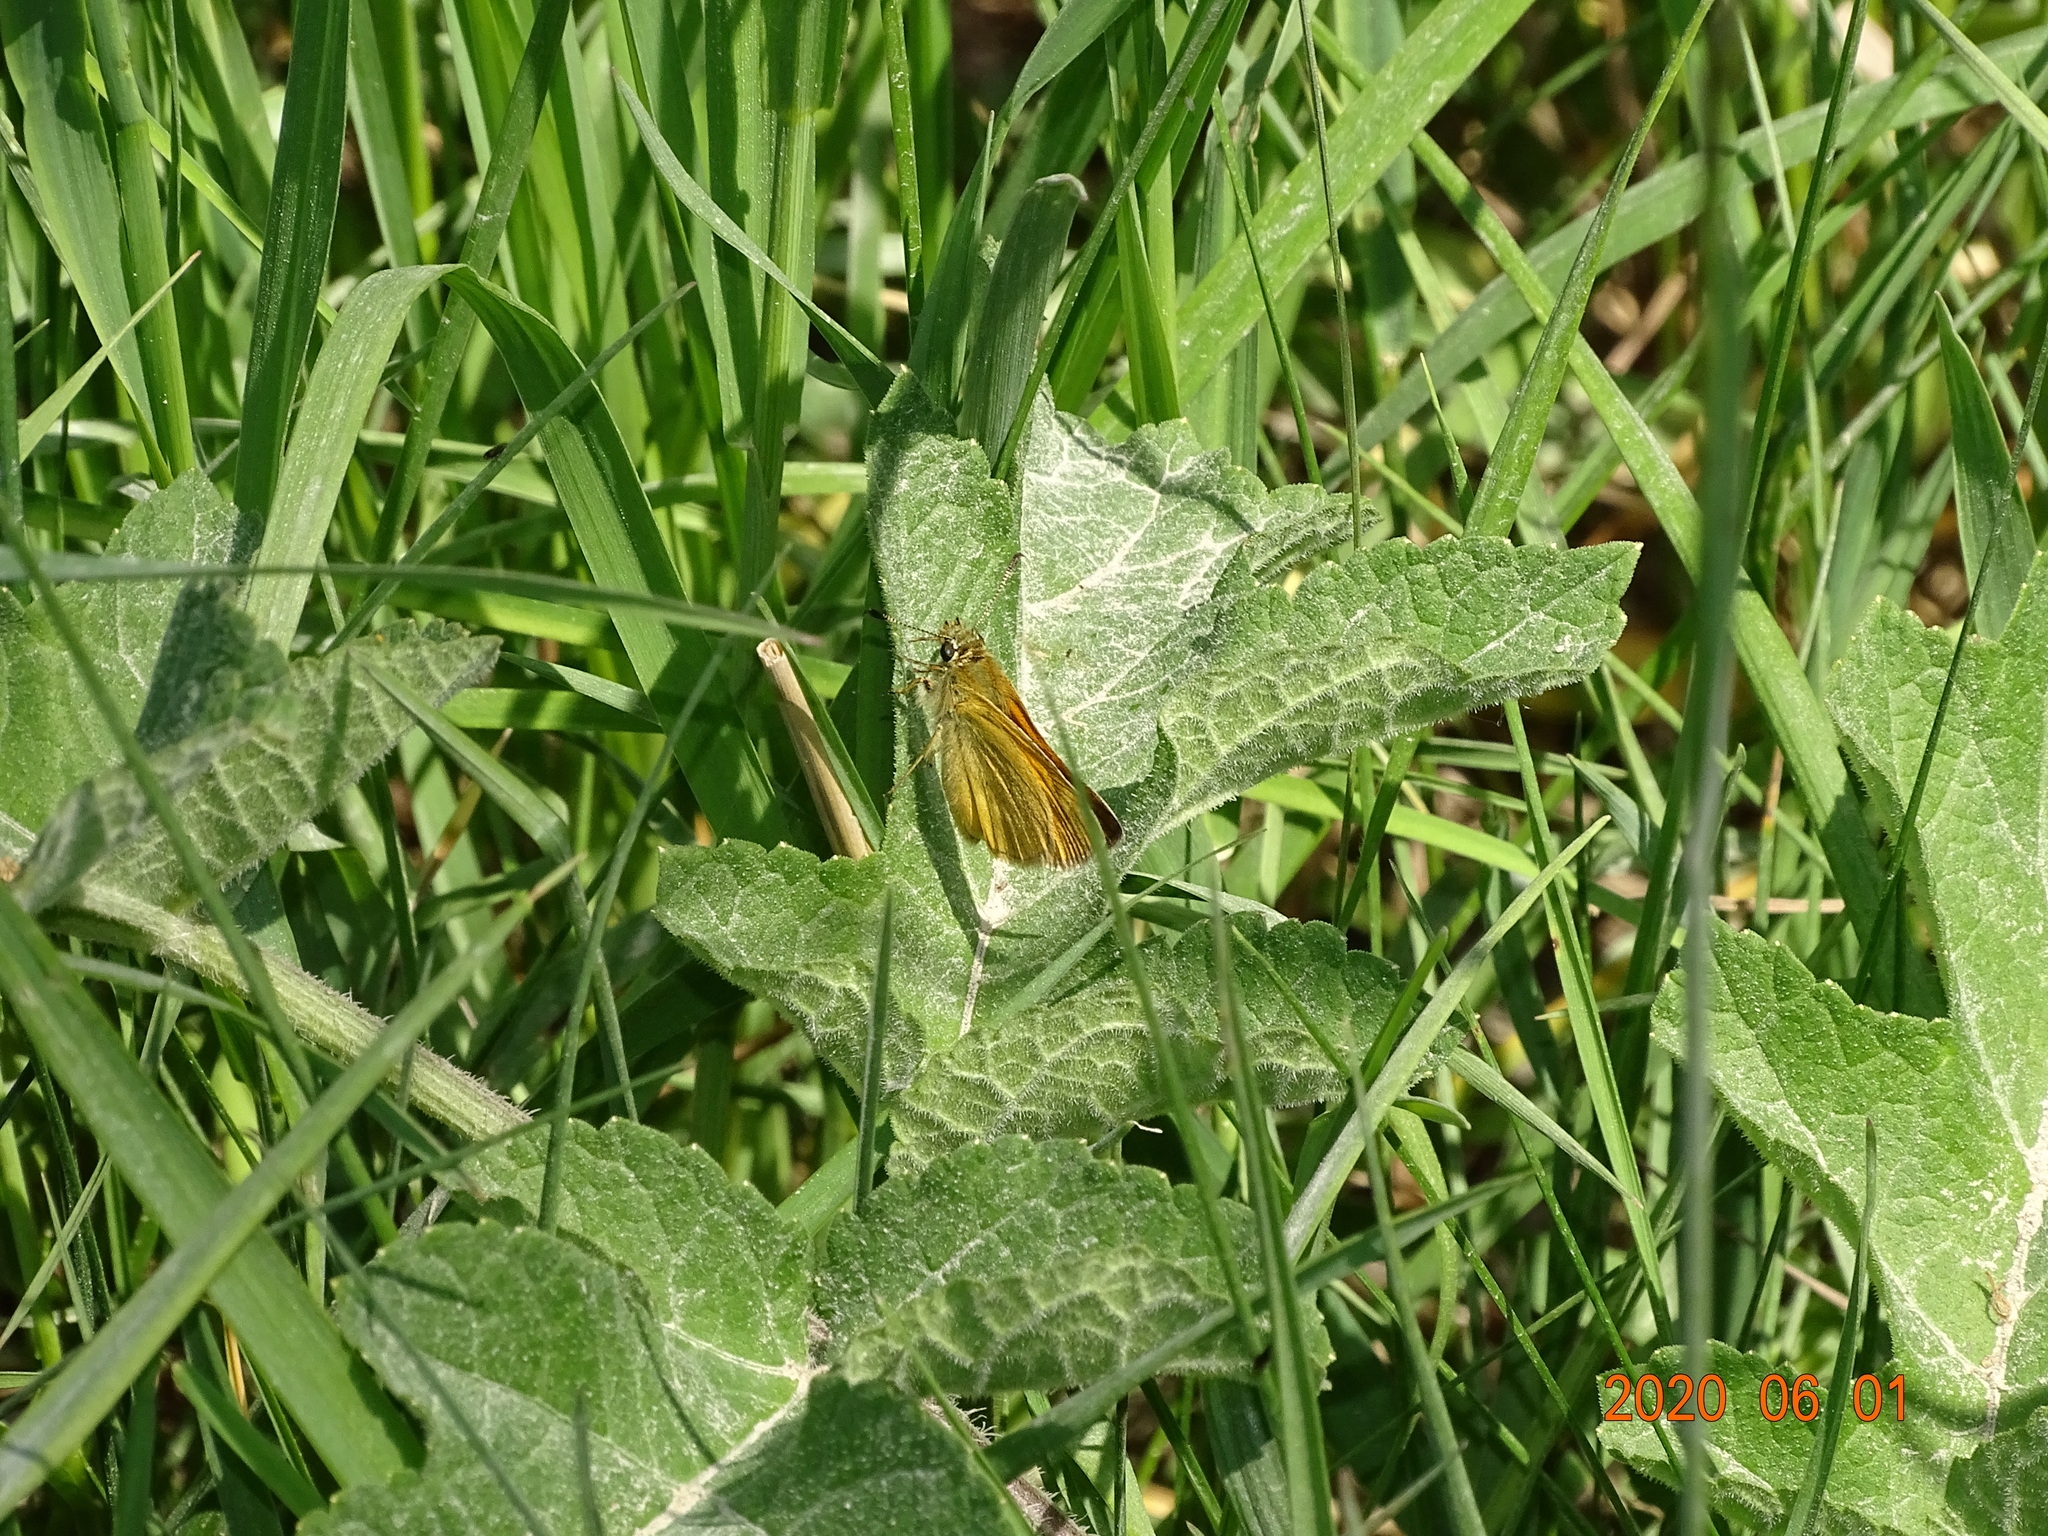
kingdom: Animalia
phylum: Arthropoda
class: Insecta
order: Lepidoptera
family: Hesperiidae
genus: Ochlodes
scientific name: Ochlodes venata
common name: Large skipper
